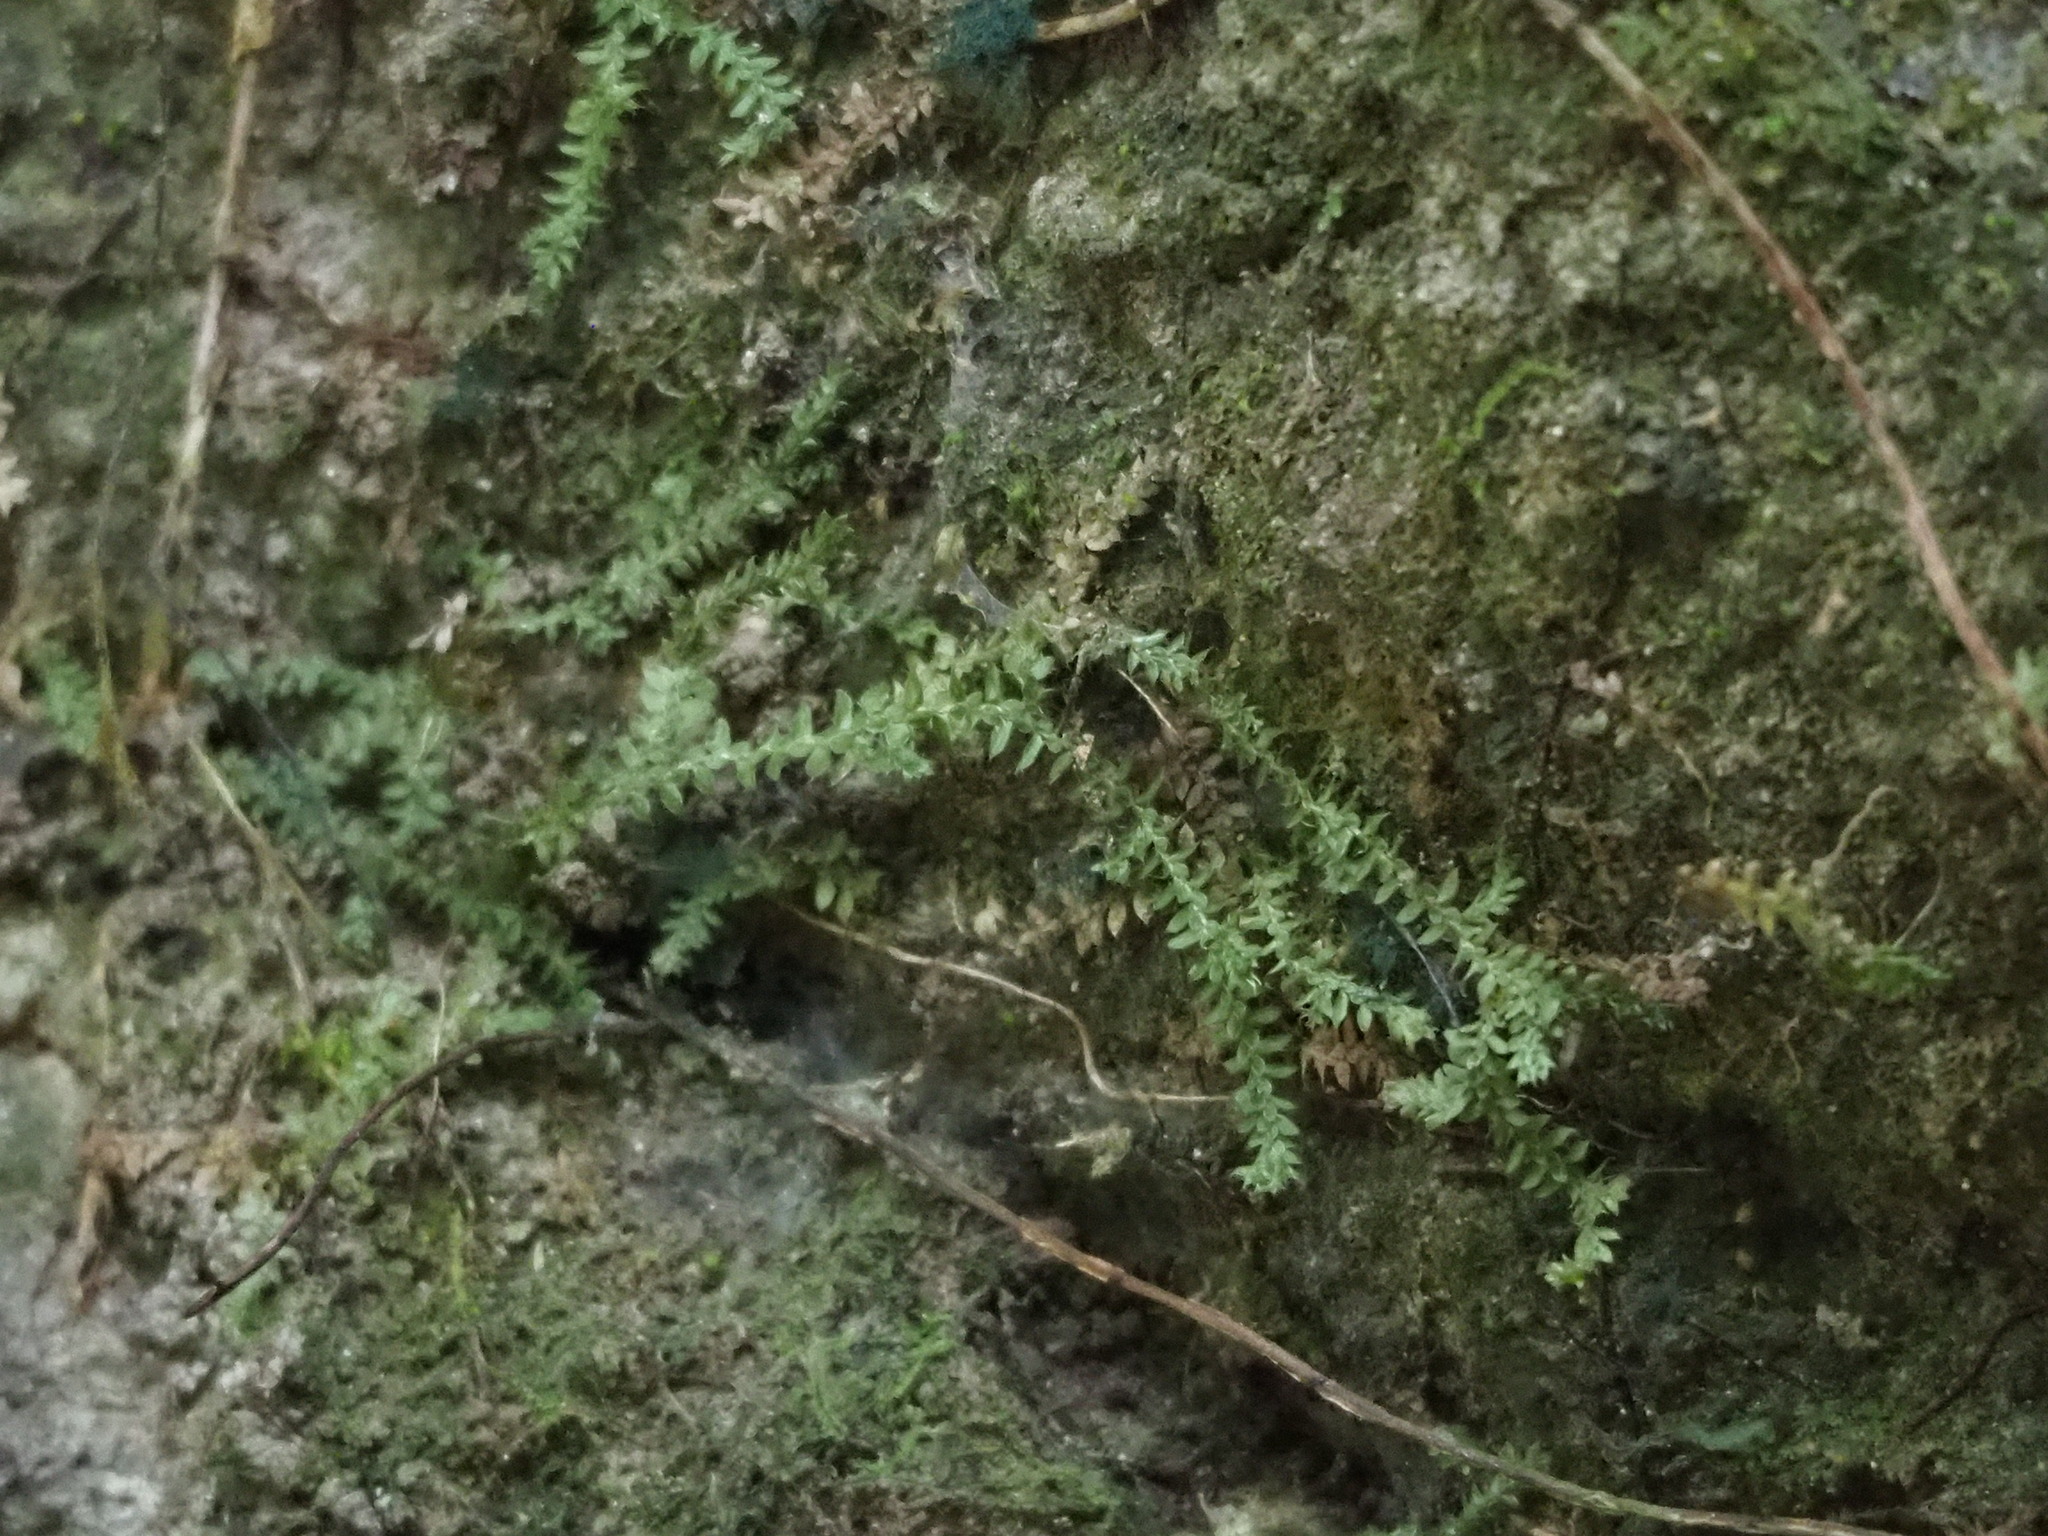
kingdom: Plantae
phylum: Tracheophyta
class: Lycopodiopsida
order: Selaginellales
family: Selaginellaceae
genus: Selaginella
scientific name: Selaginella lutchuensis
